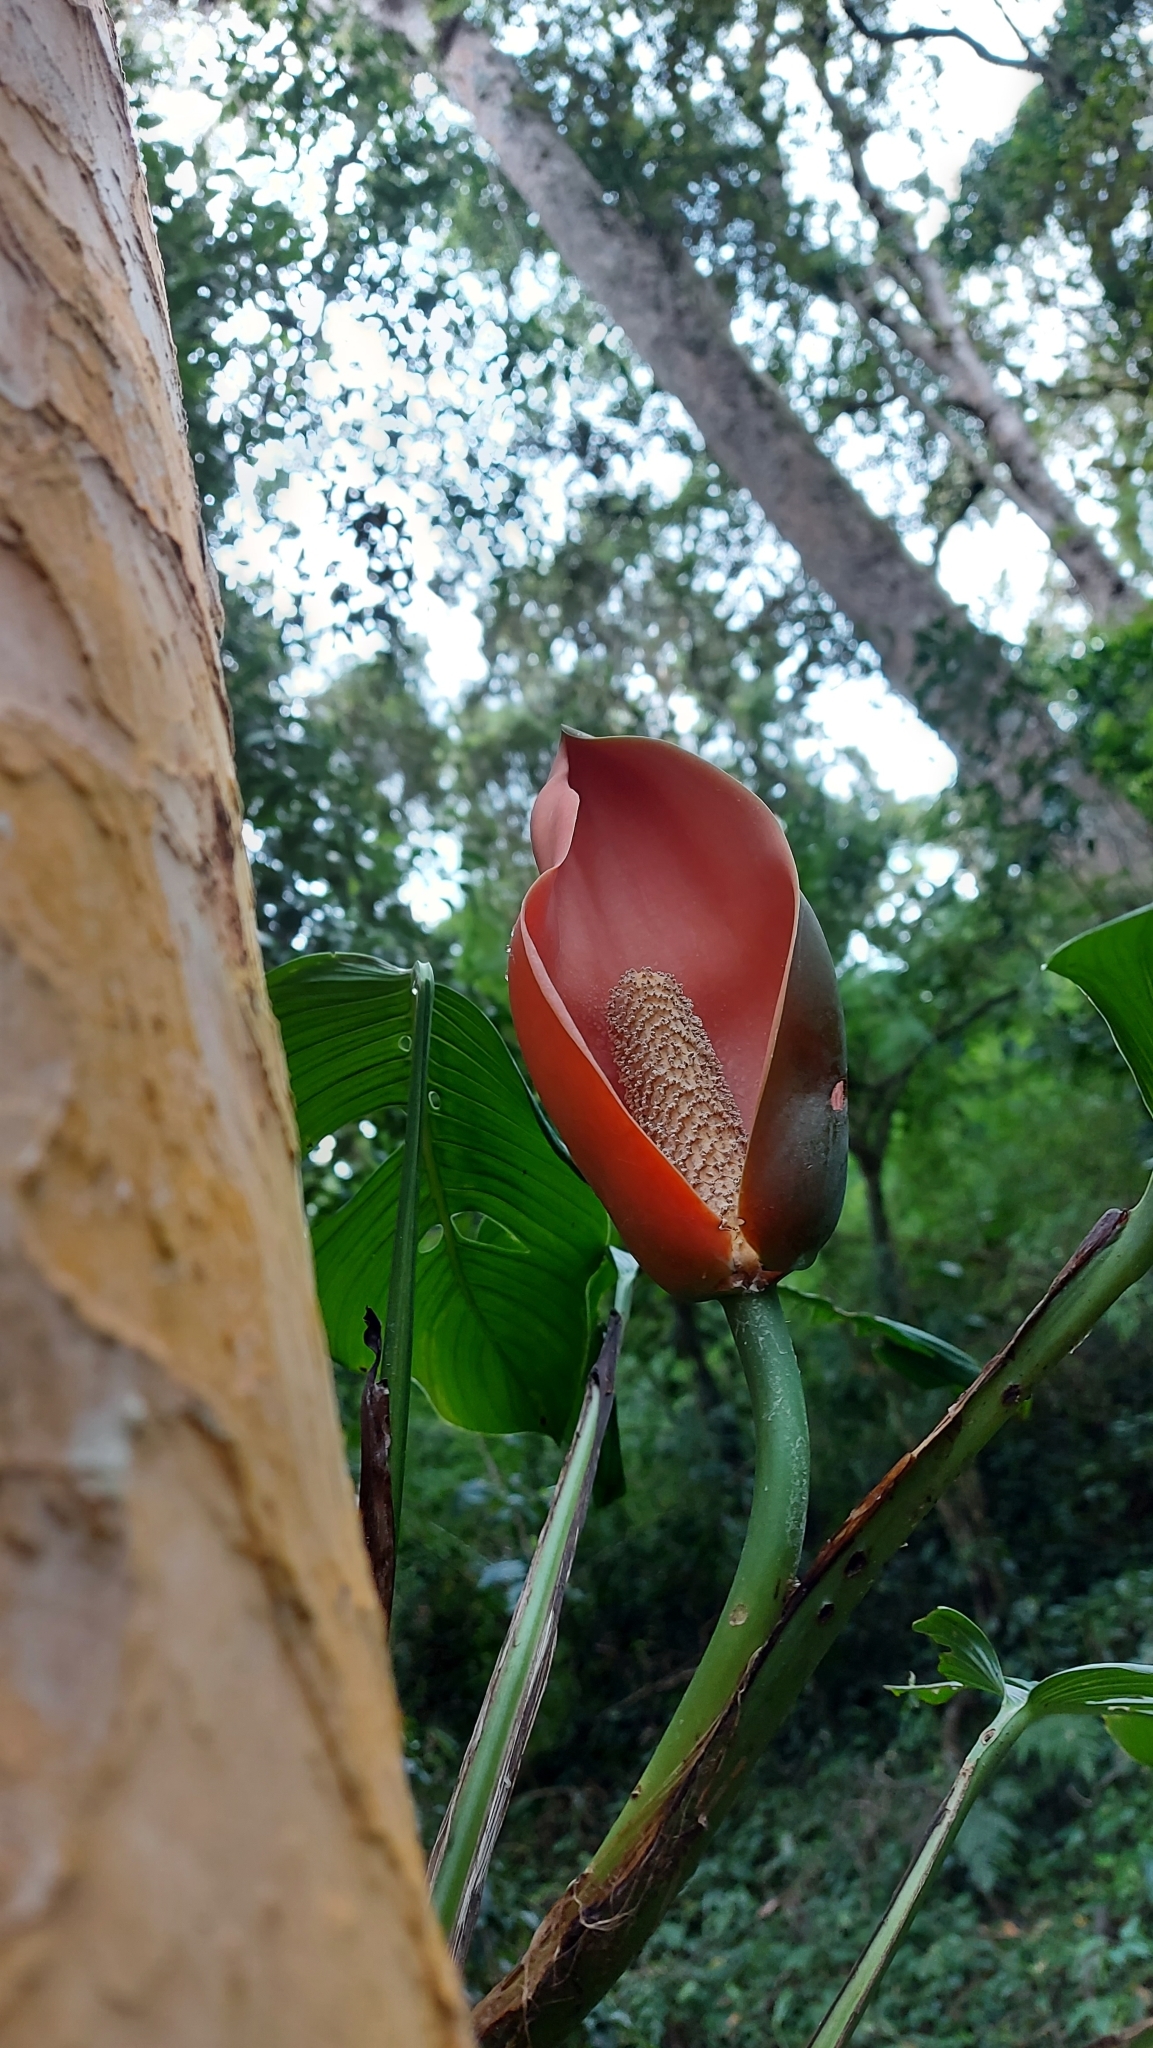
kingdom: Plantae
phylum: Tracheophyta
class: Liliopsida
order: Alismatales
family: Araceae
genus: Monstera
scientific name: Monstera oreophila
